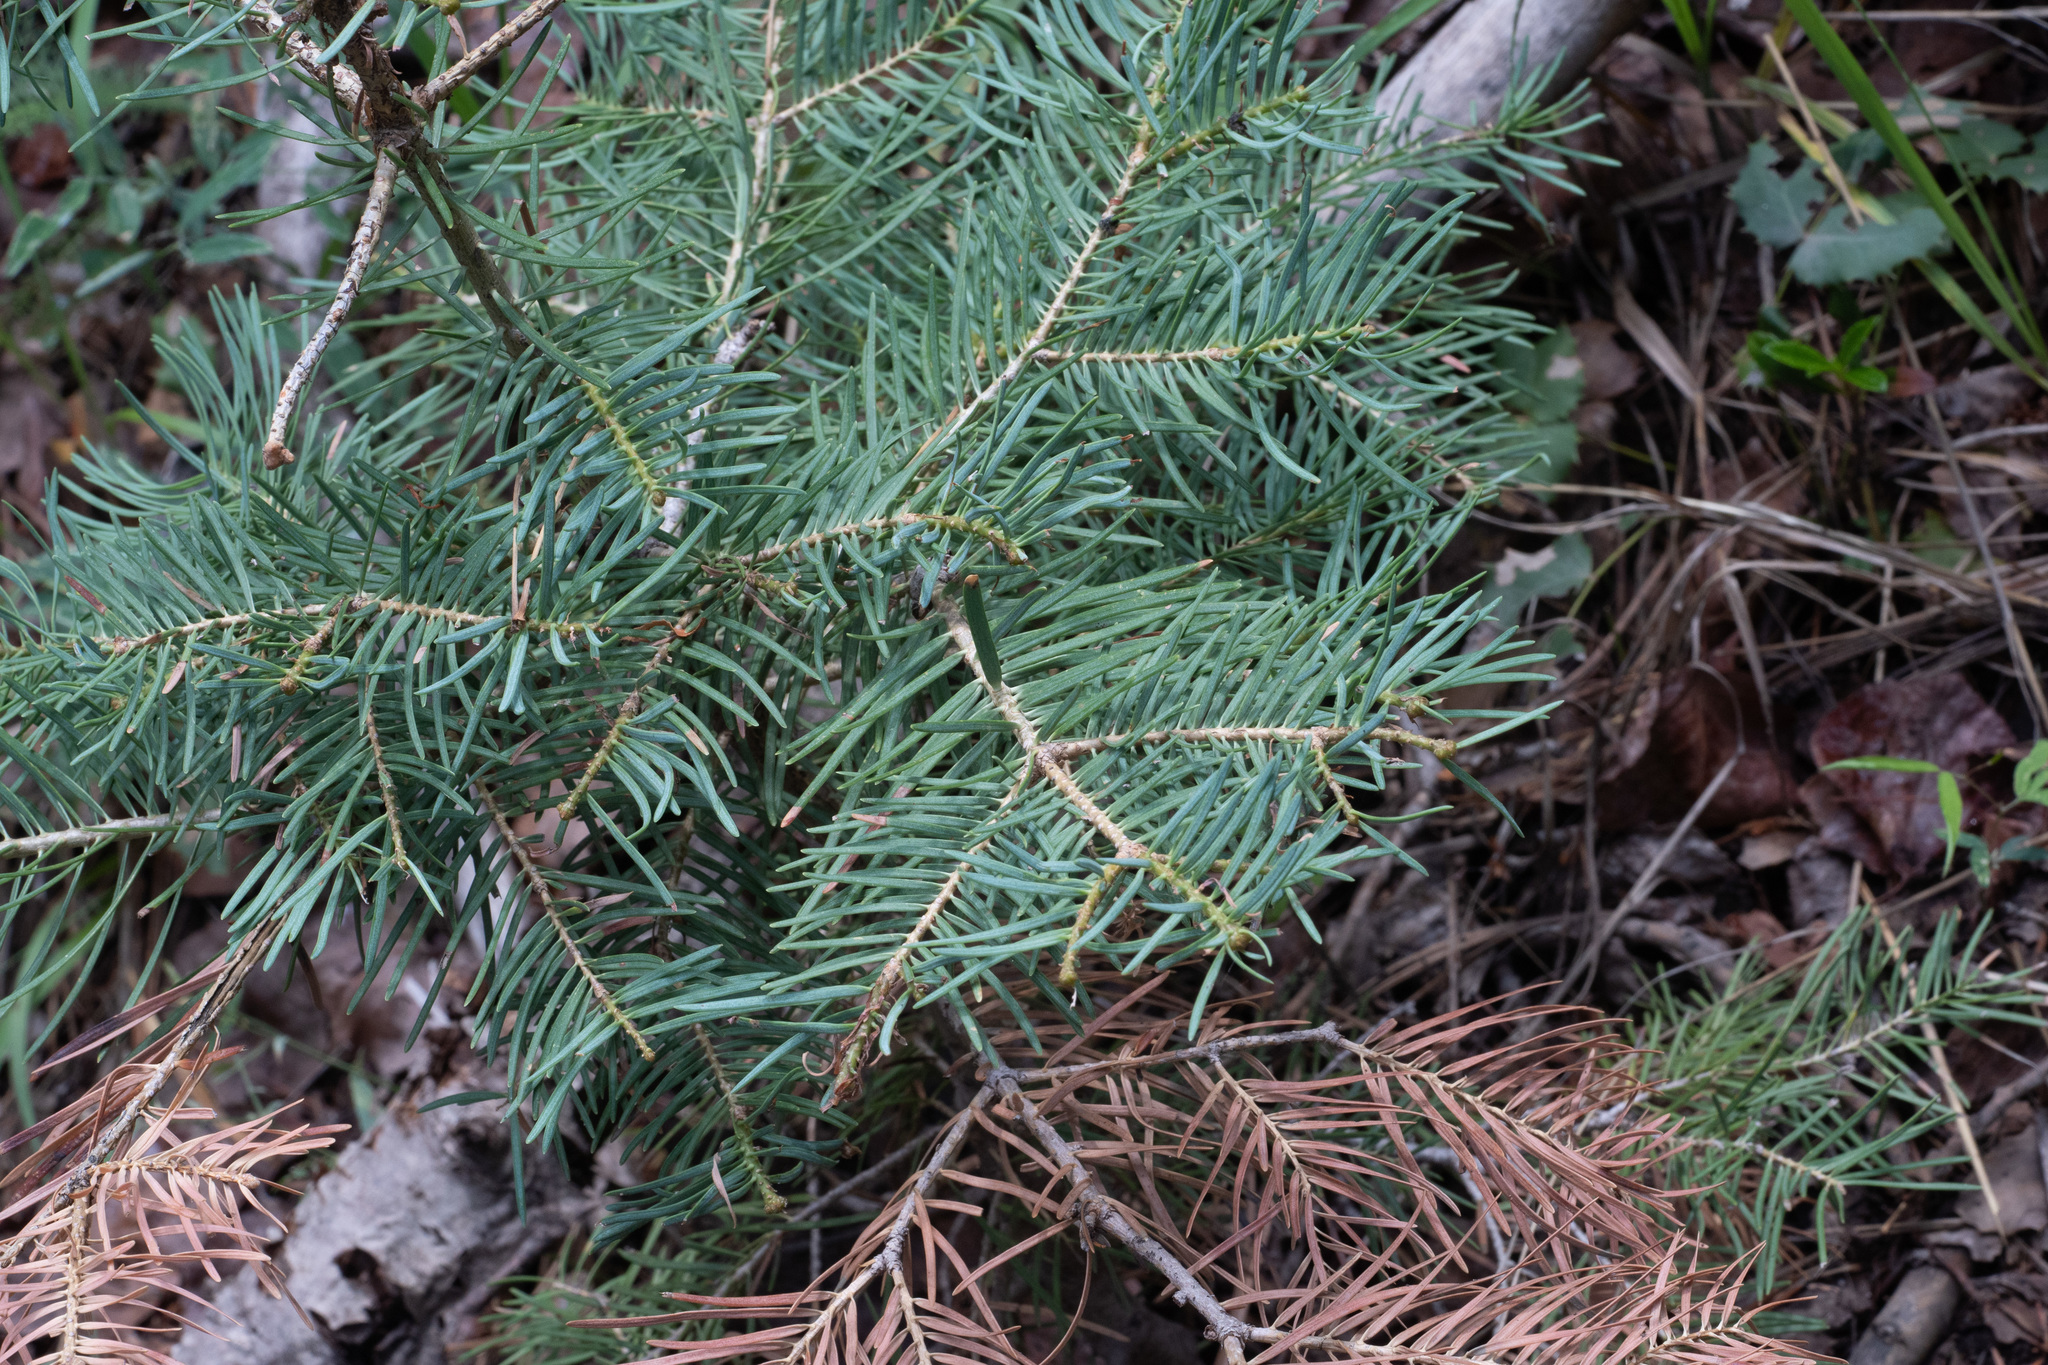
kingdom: Plantae
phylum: Tracheophyta
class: Pinopsida
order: Pinales
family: Pinaceae
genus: Abies
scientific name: Abies concolor
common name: Colorado fir
